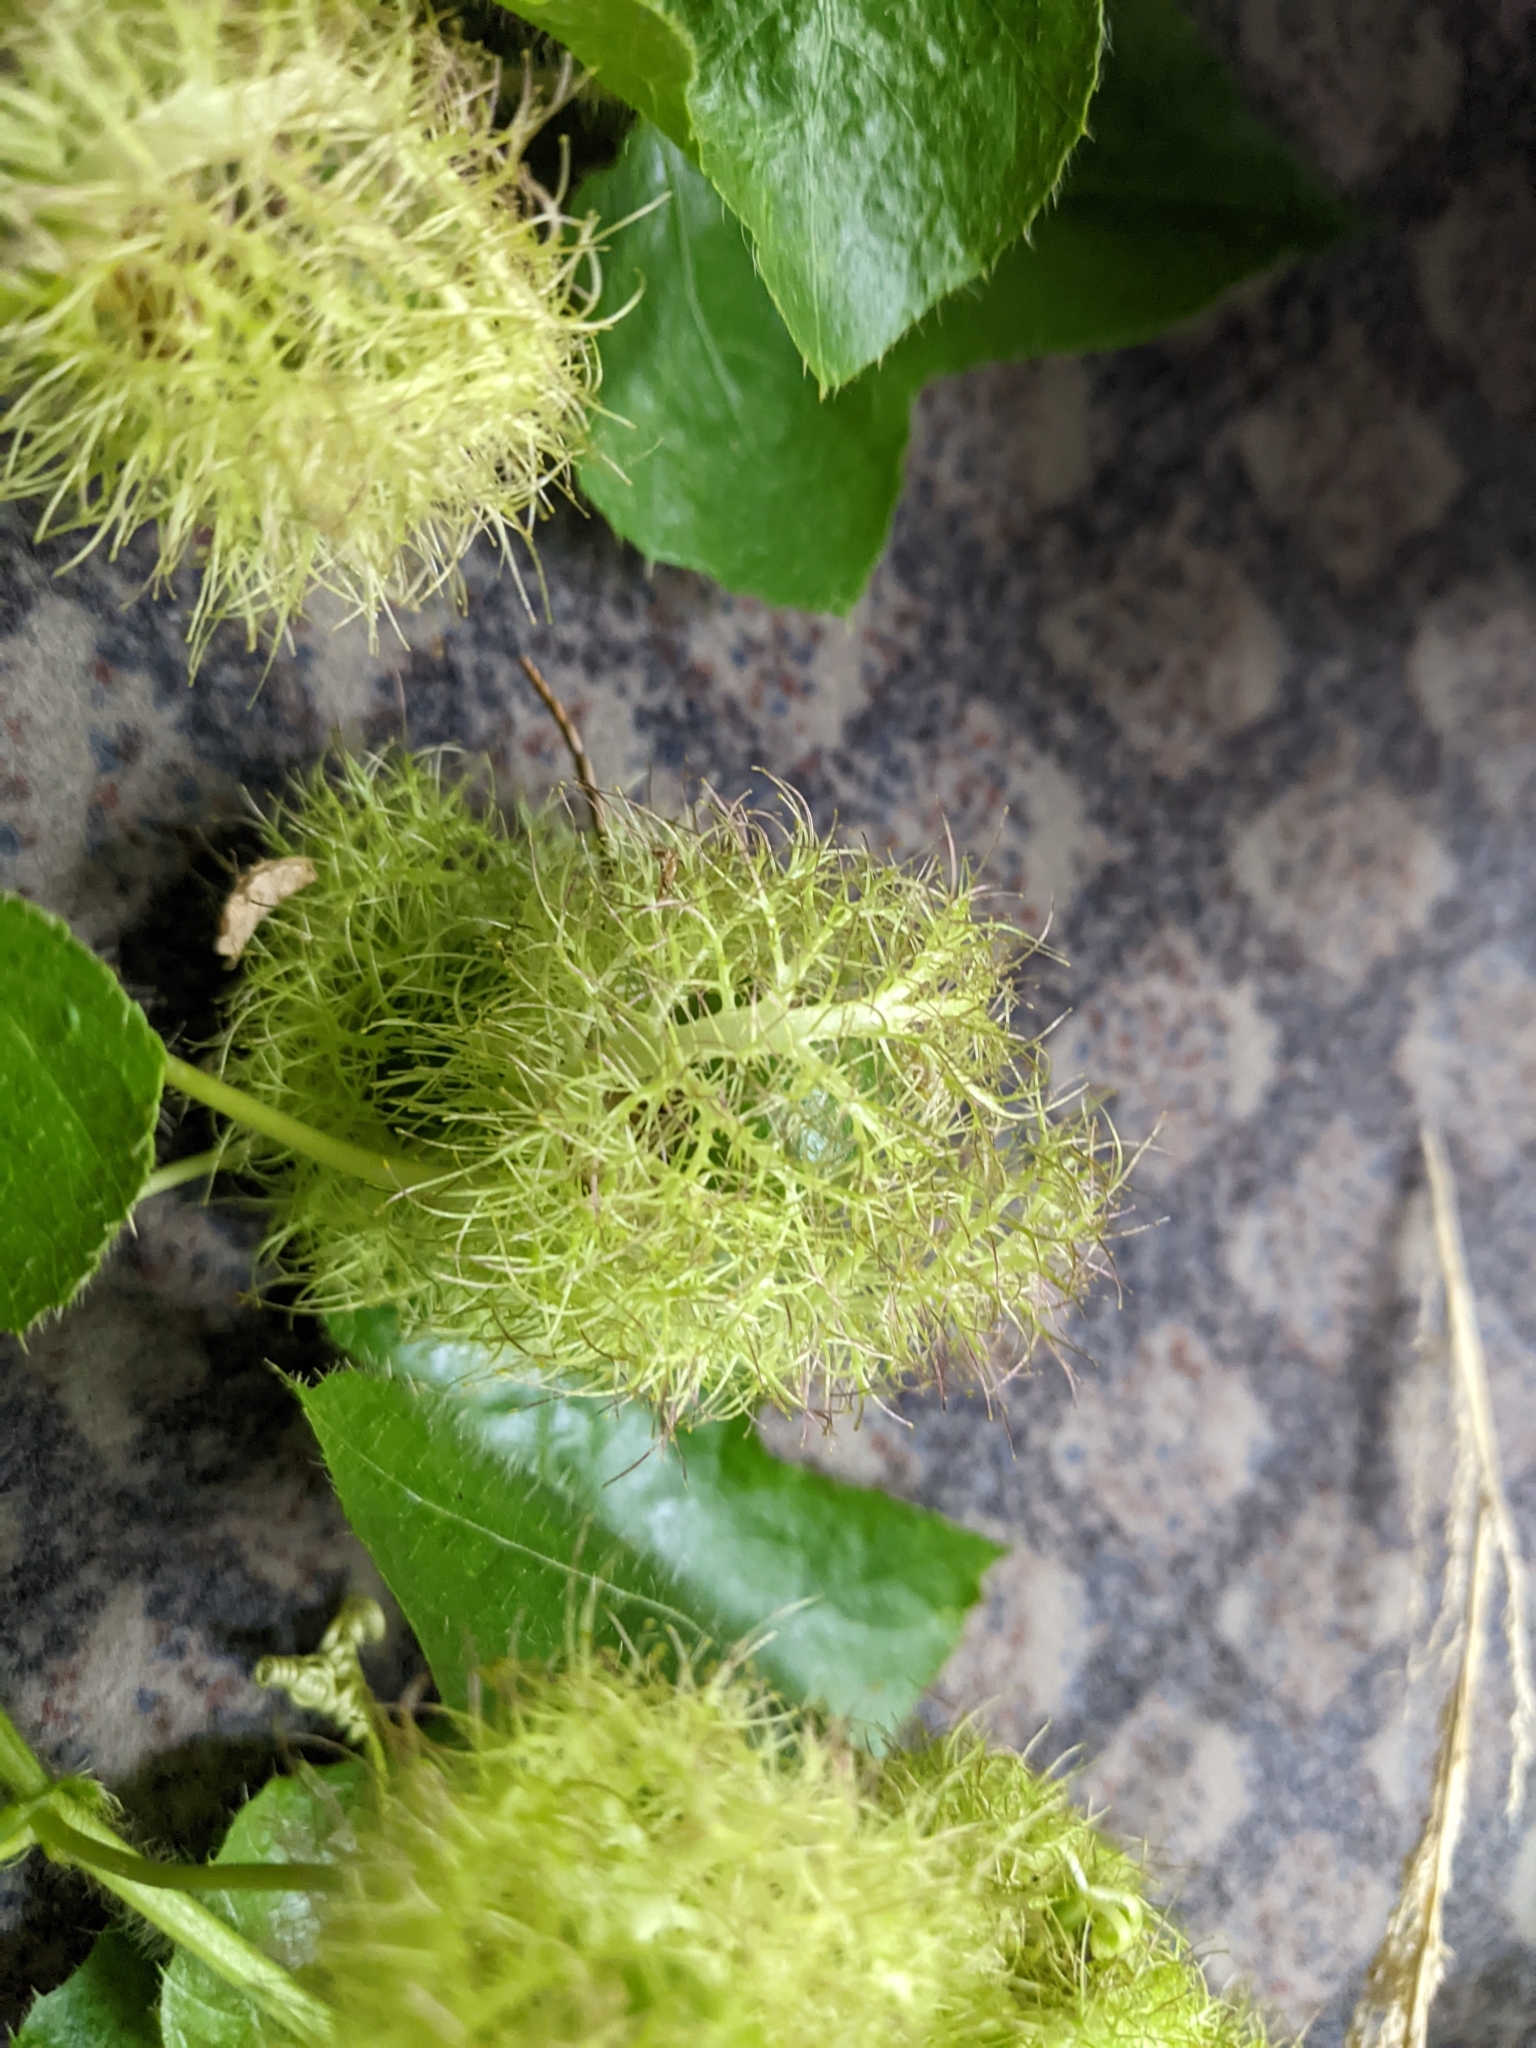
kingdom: Plantae
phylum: Tracheophyta
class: Magnoliopsida
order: Malpighiales
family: Passifloraceae
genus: Passiflora
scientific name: Passiflora vesicaria
